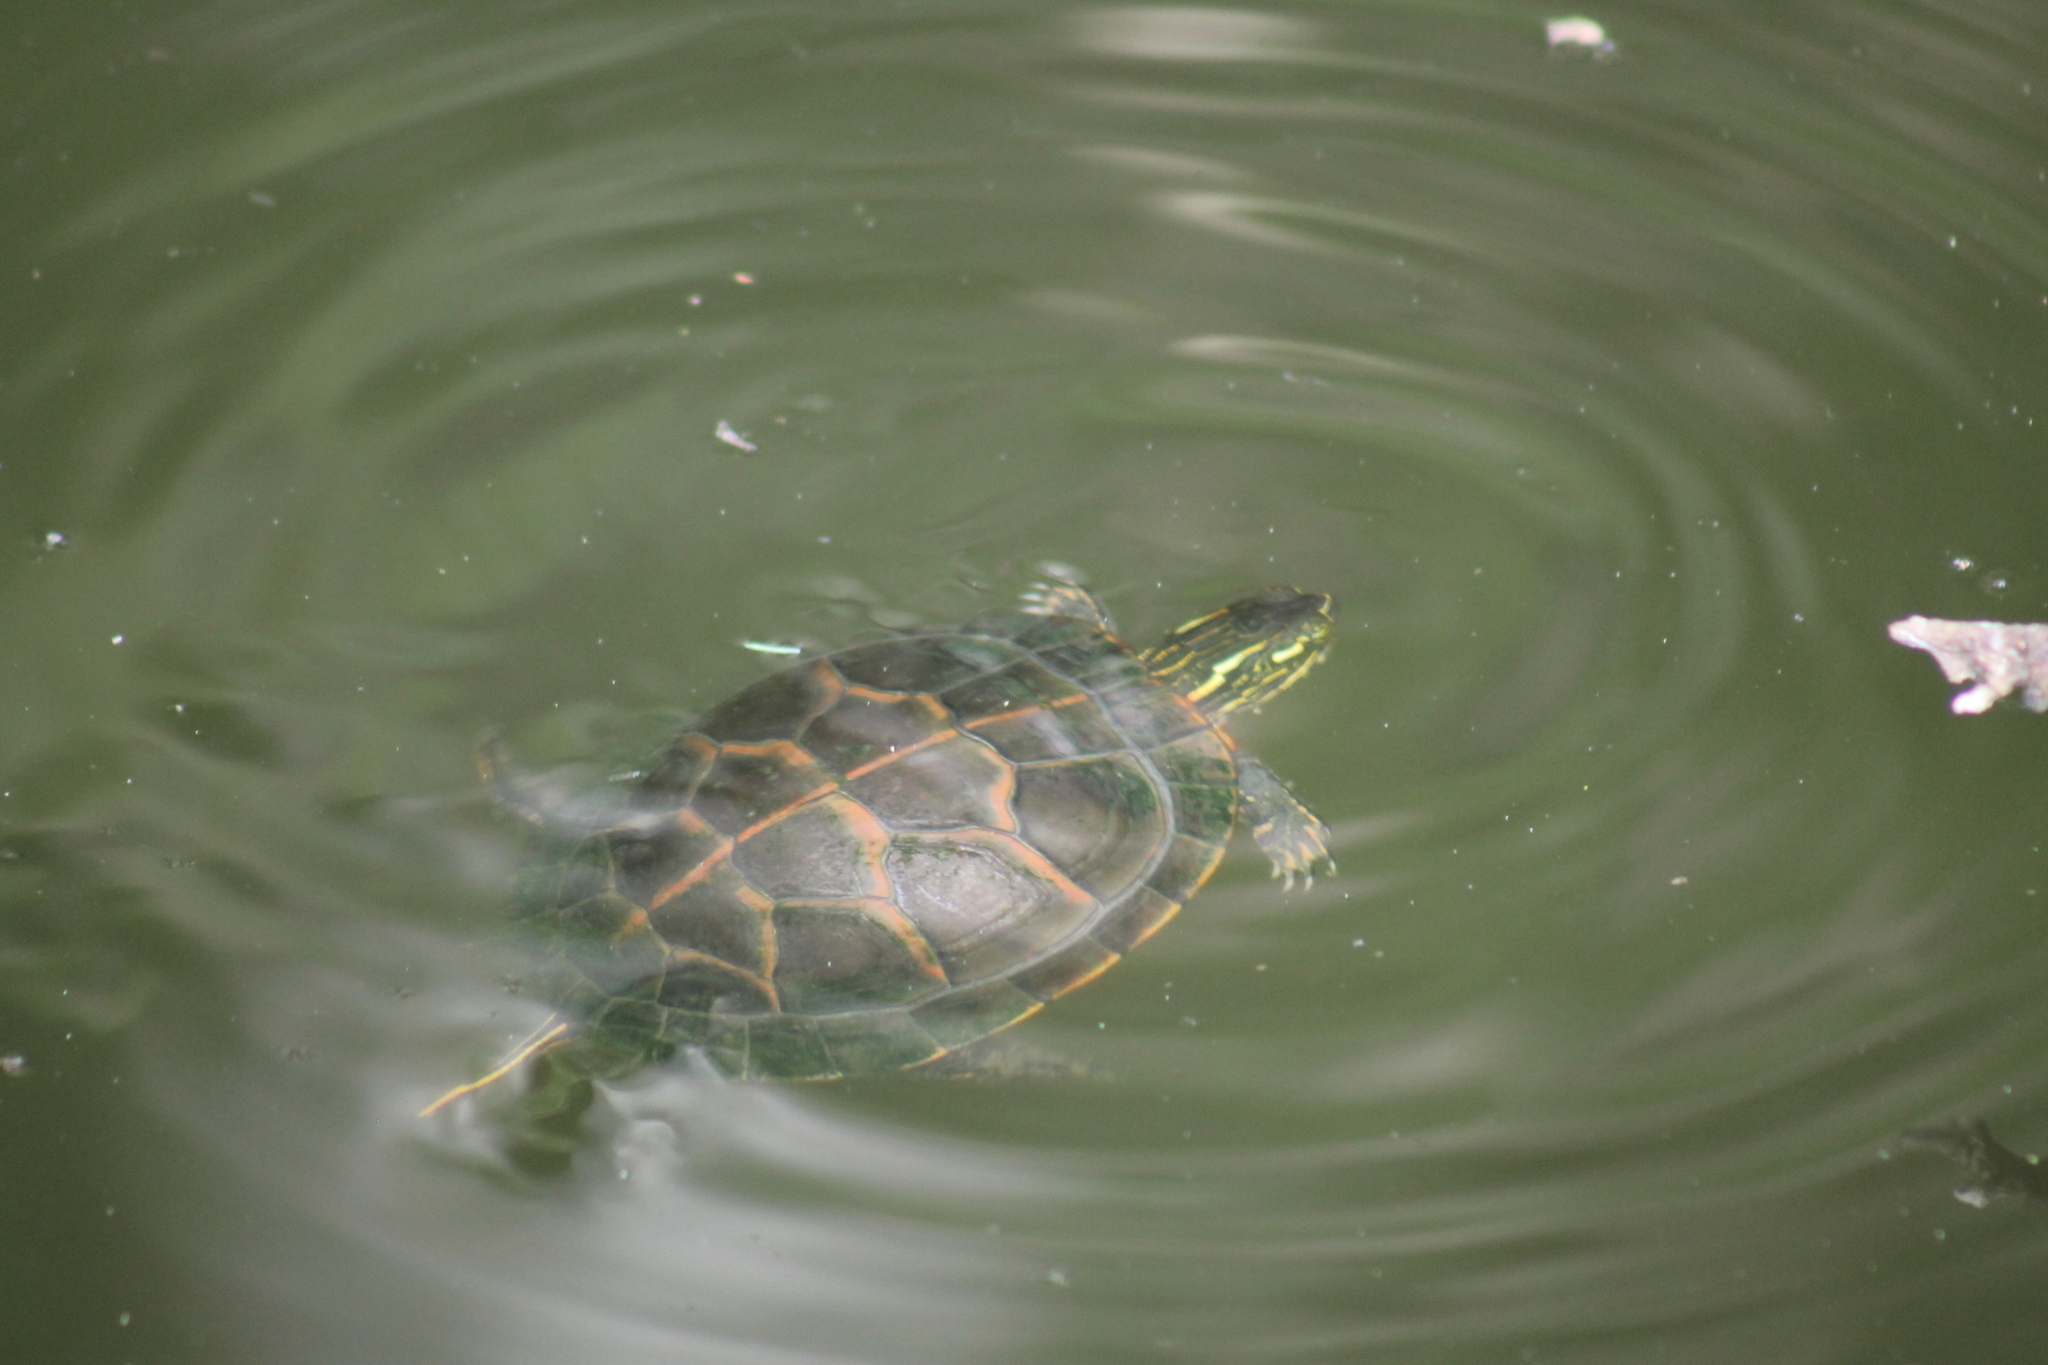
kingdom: Animalia
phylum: Chordata
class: Testudines
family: Emydidae
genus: Chrysemys
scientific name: Chrysemys dorsalis
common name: Southern painted turtle
